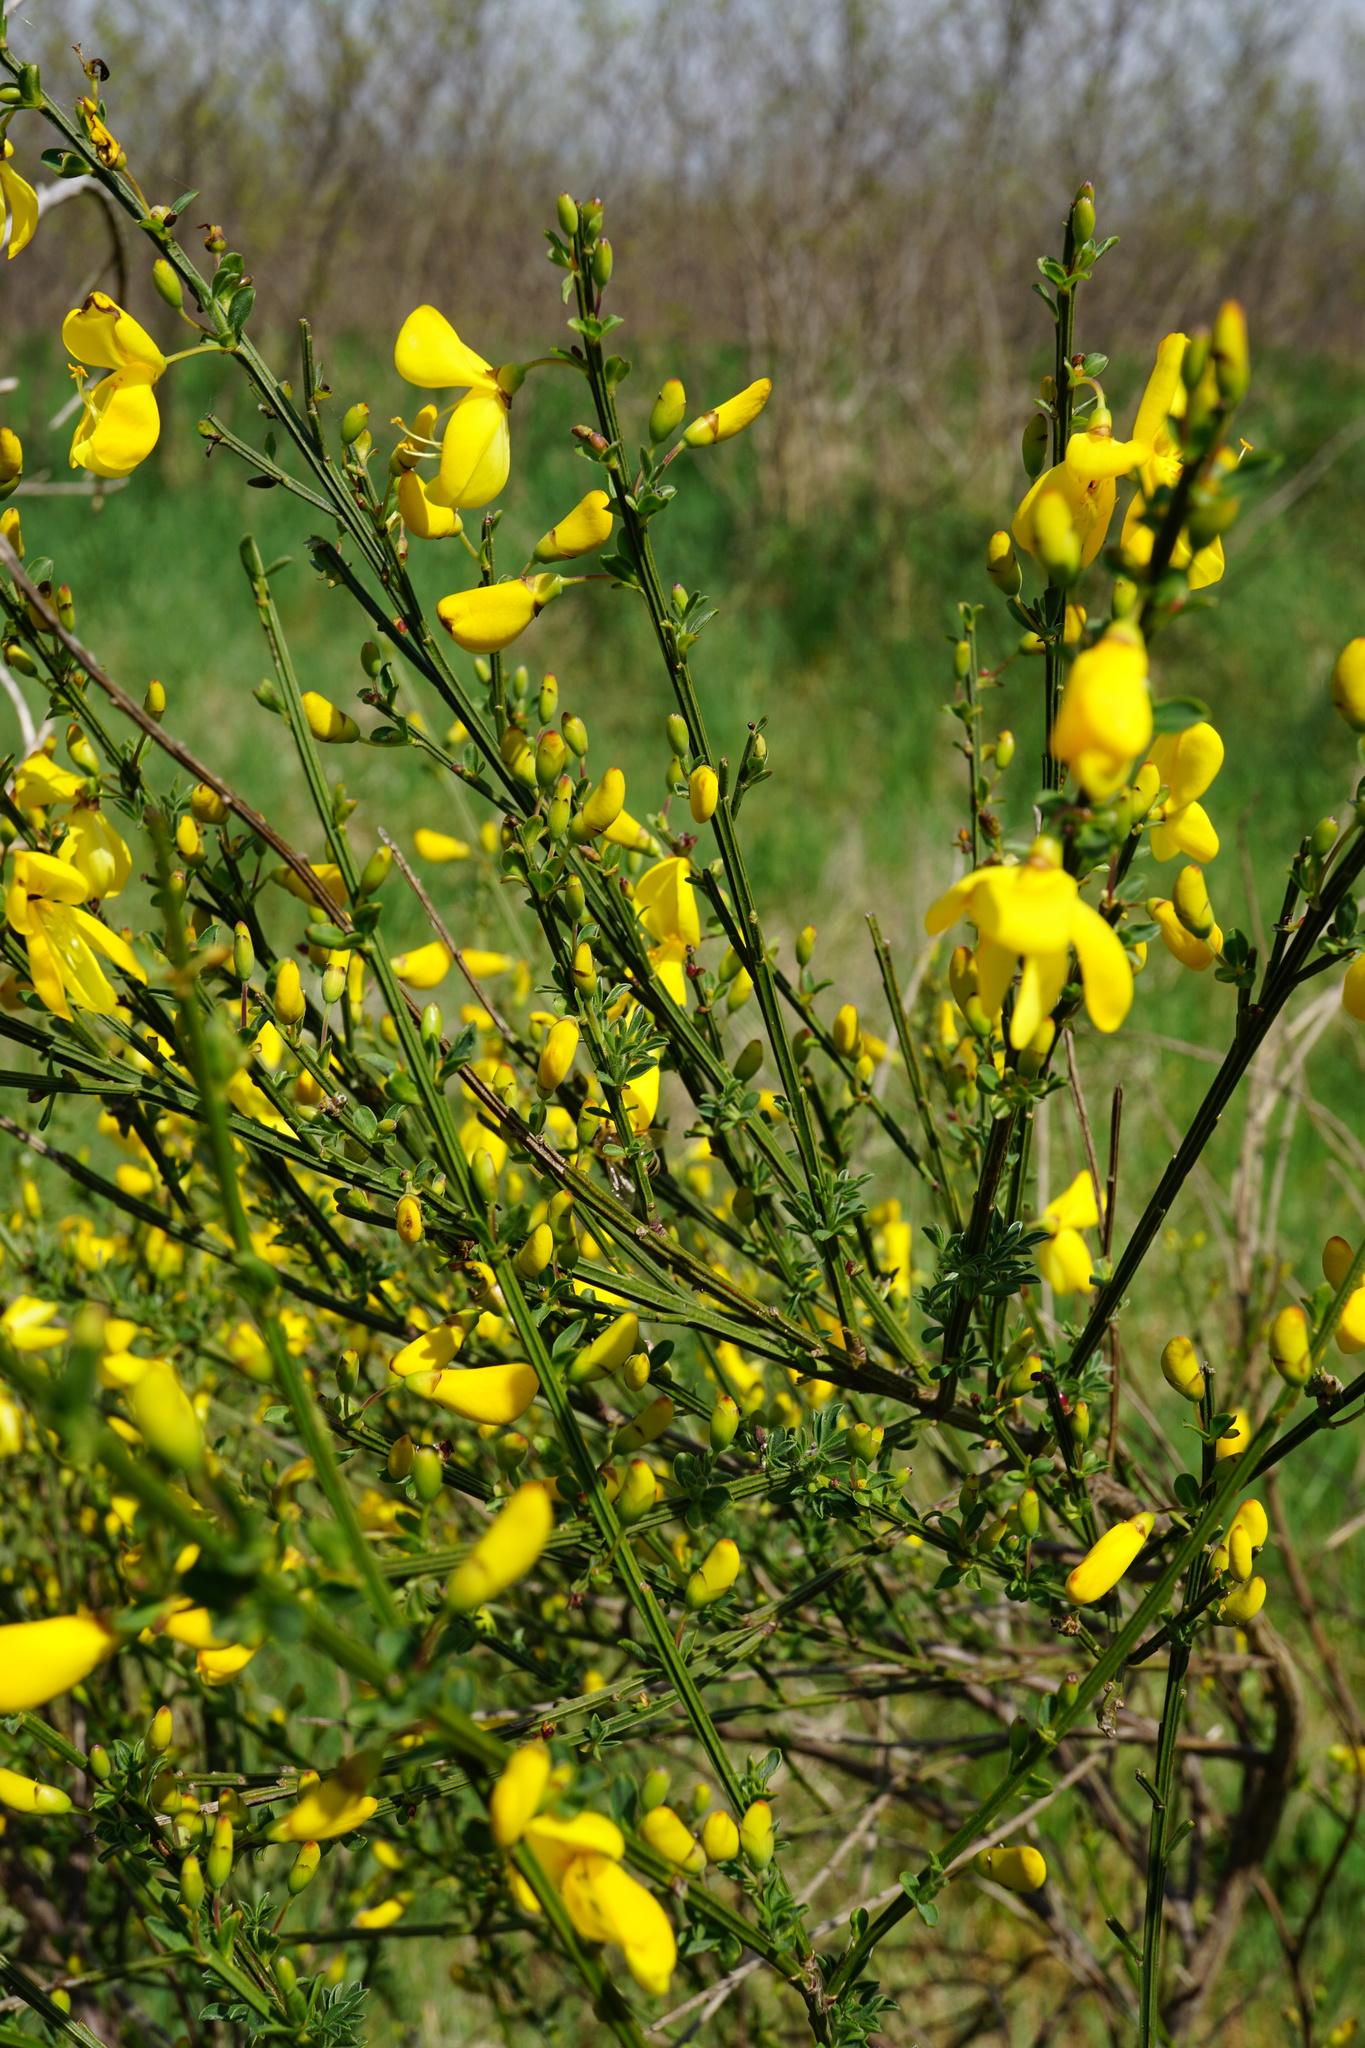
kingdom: Plantae
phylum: Tracheophyta
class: Magnoliopsida
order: Fabales
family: Fabaceae
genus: Cytisus
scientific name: Cytisus scoparius
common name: Scotch broom
